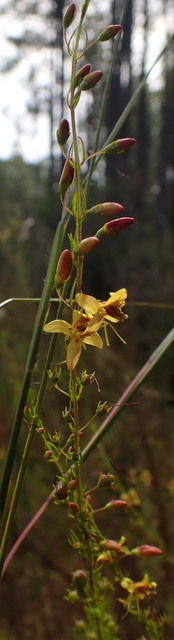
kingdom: Plantae
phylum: Tracheophyta
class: Magnoliopsida
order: Lamiales
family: Orobanchaceae
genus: Seymeria
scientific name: Seymeria cassioides
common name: Yaupon black-senna
